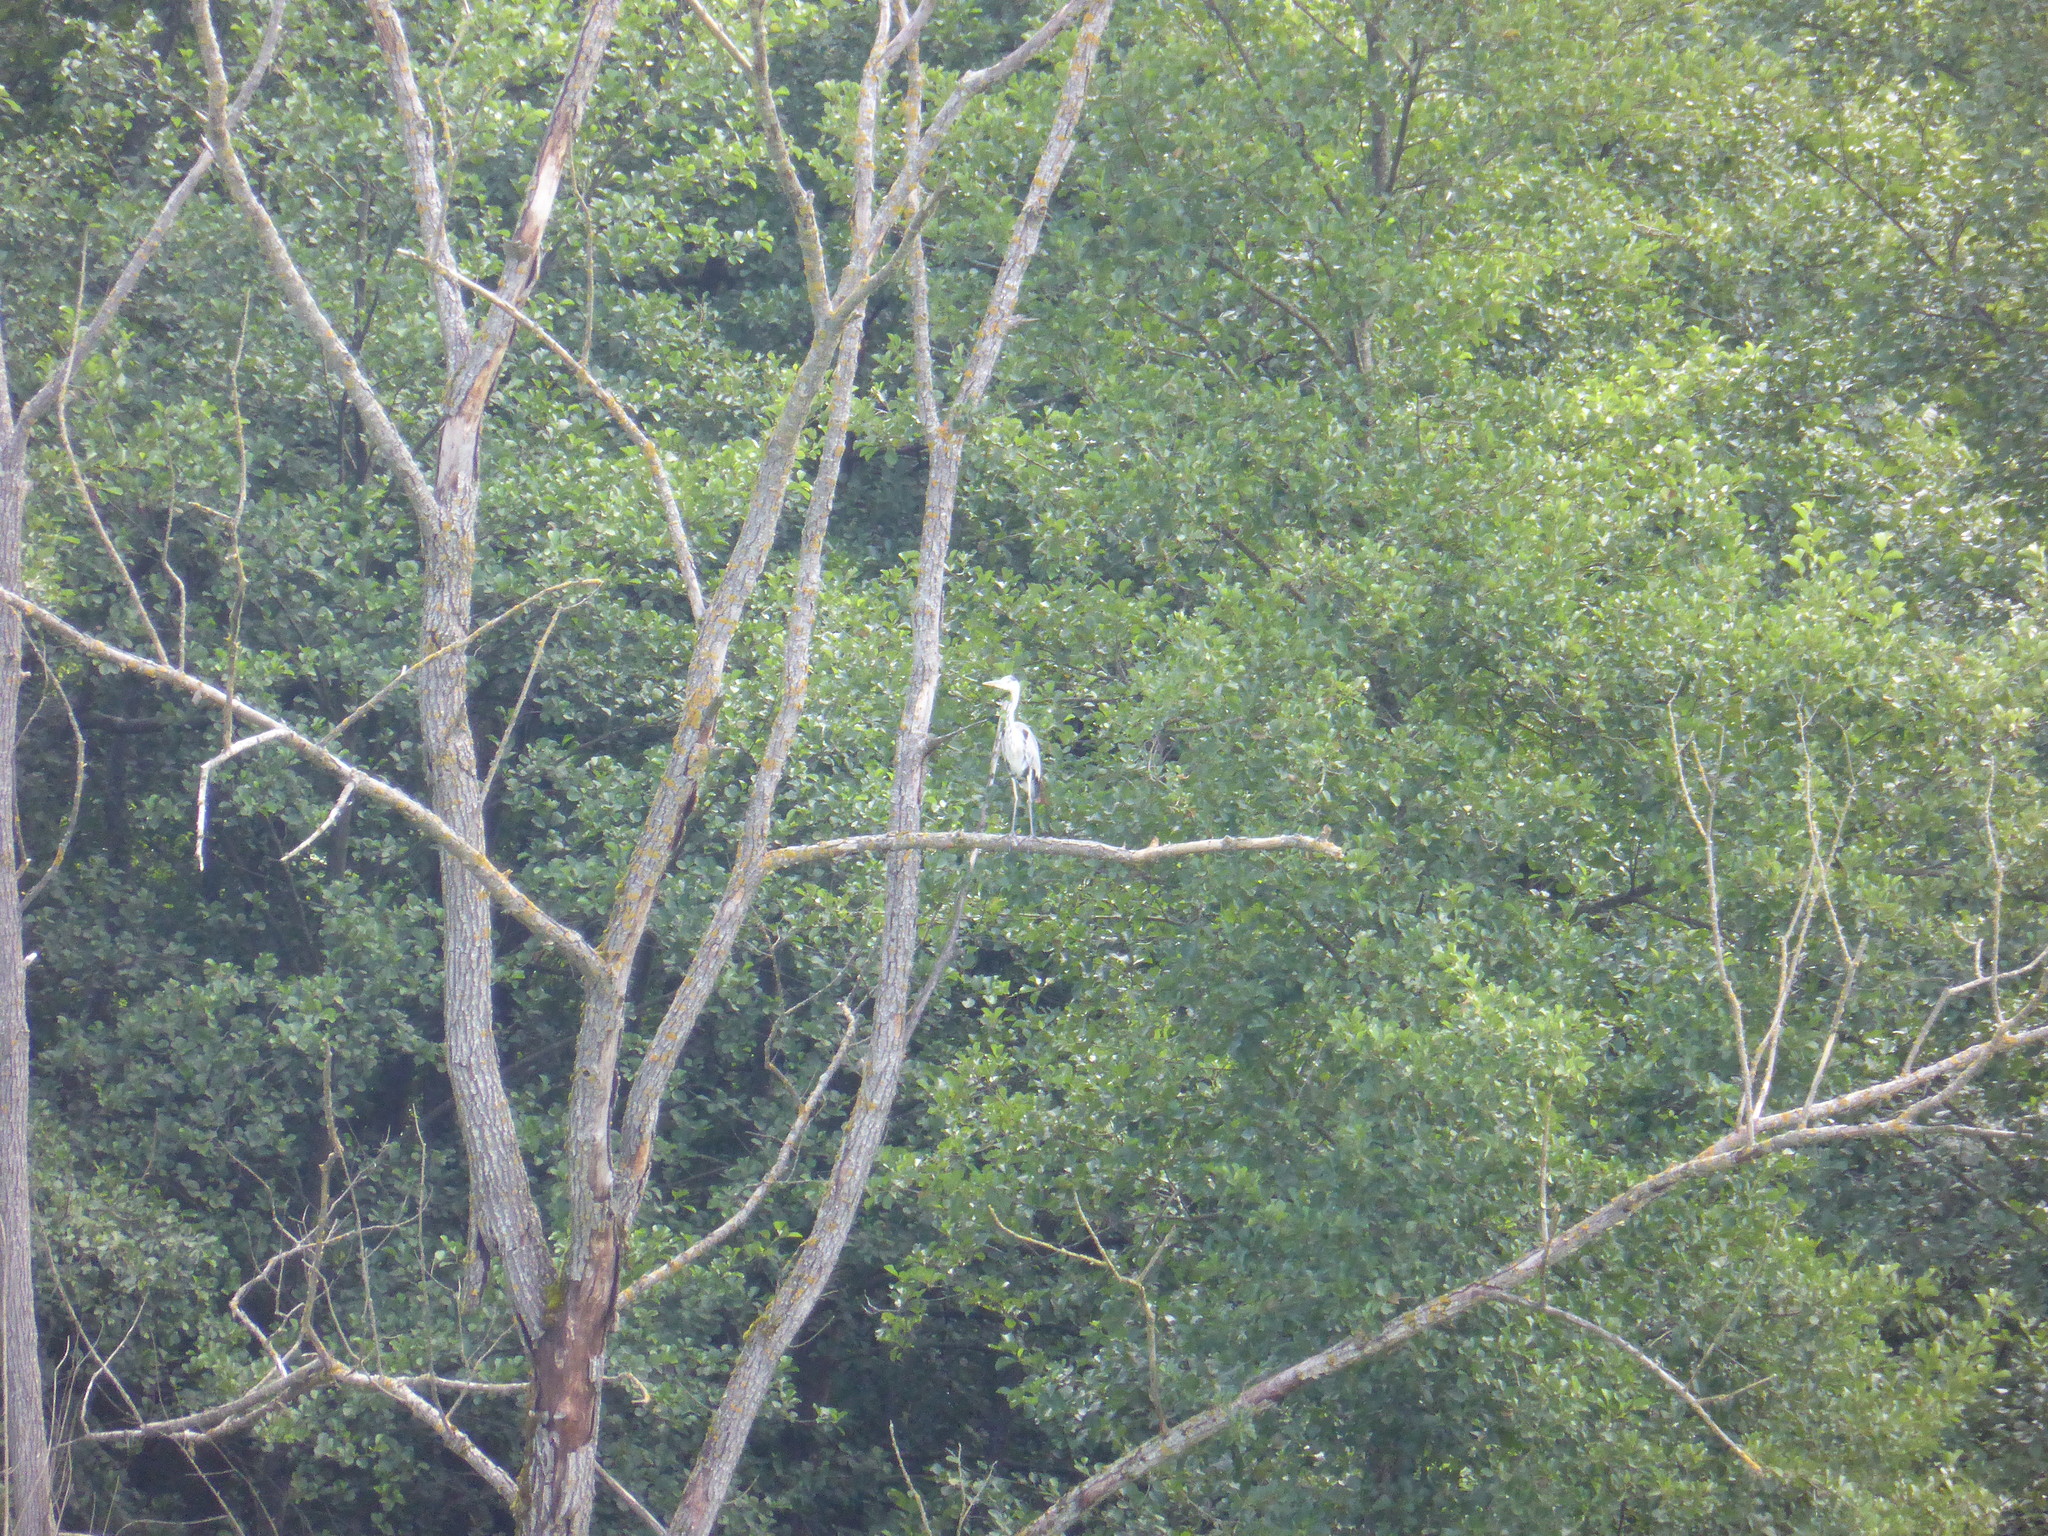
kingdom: Animalia
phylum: Chordata
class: Aves
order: Pelecaniformes
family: Ardeidae
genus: Ardea
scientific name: Ardea cinerea
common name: Grey heron
